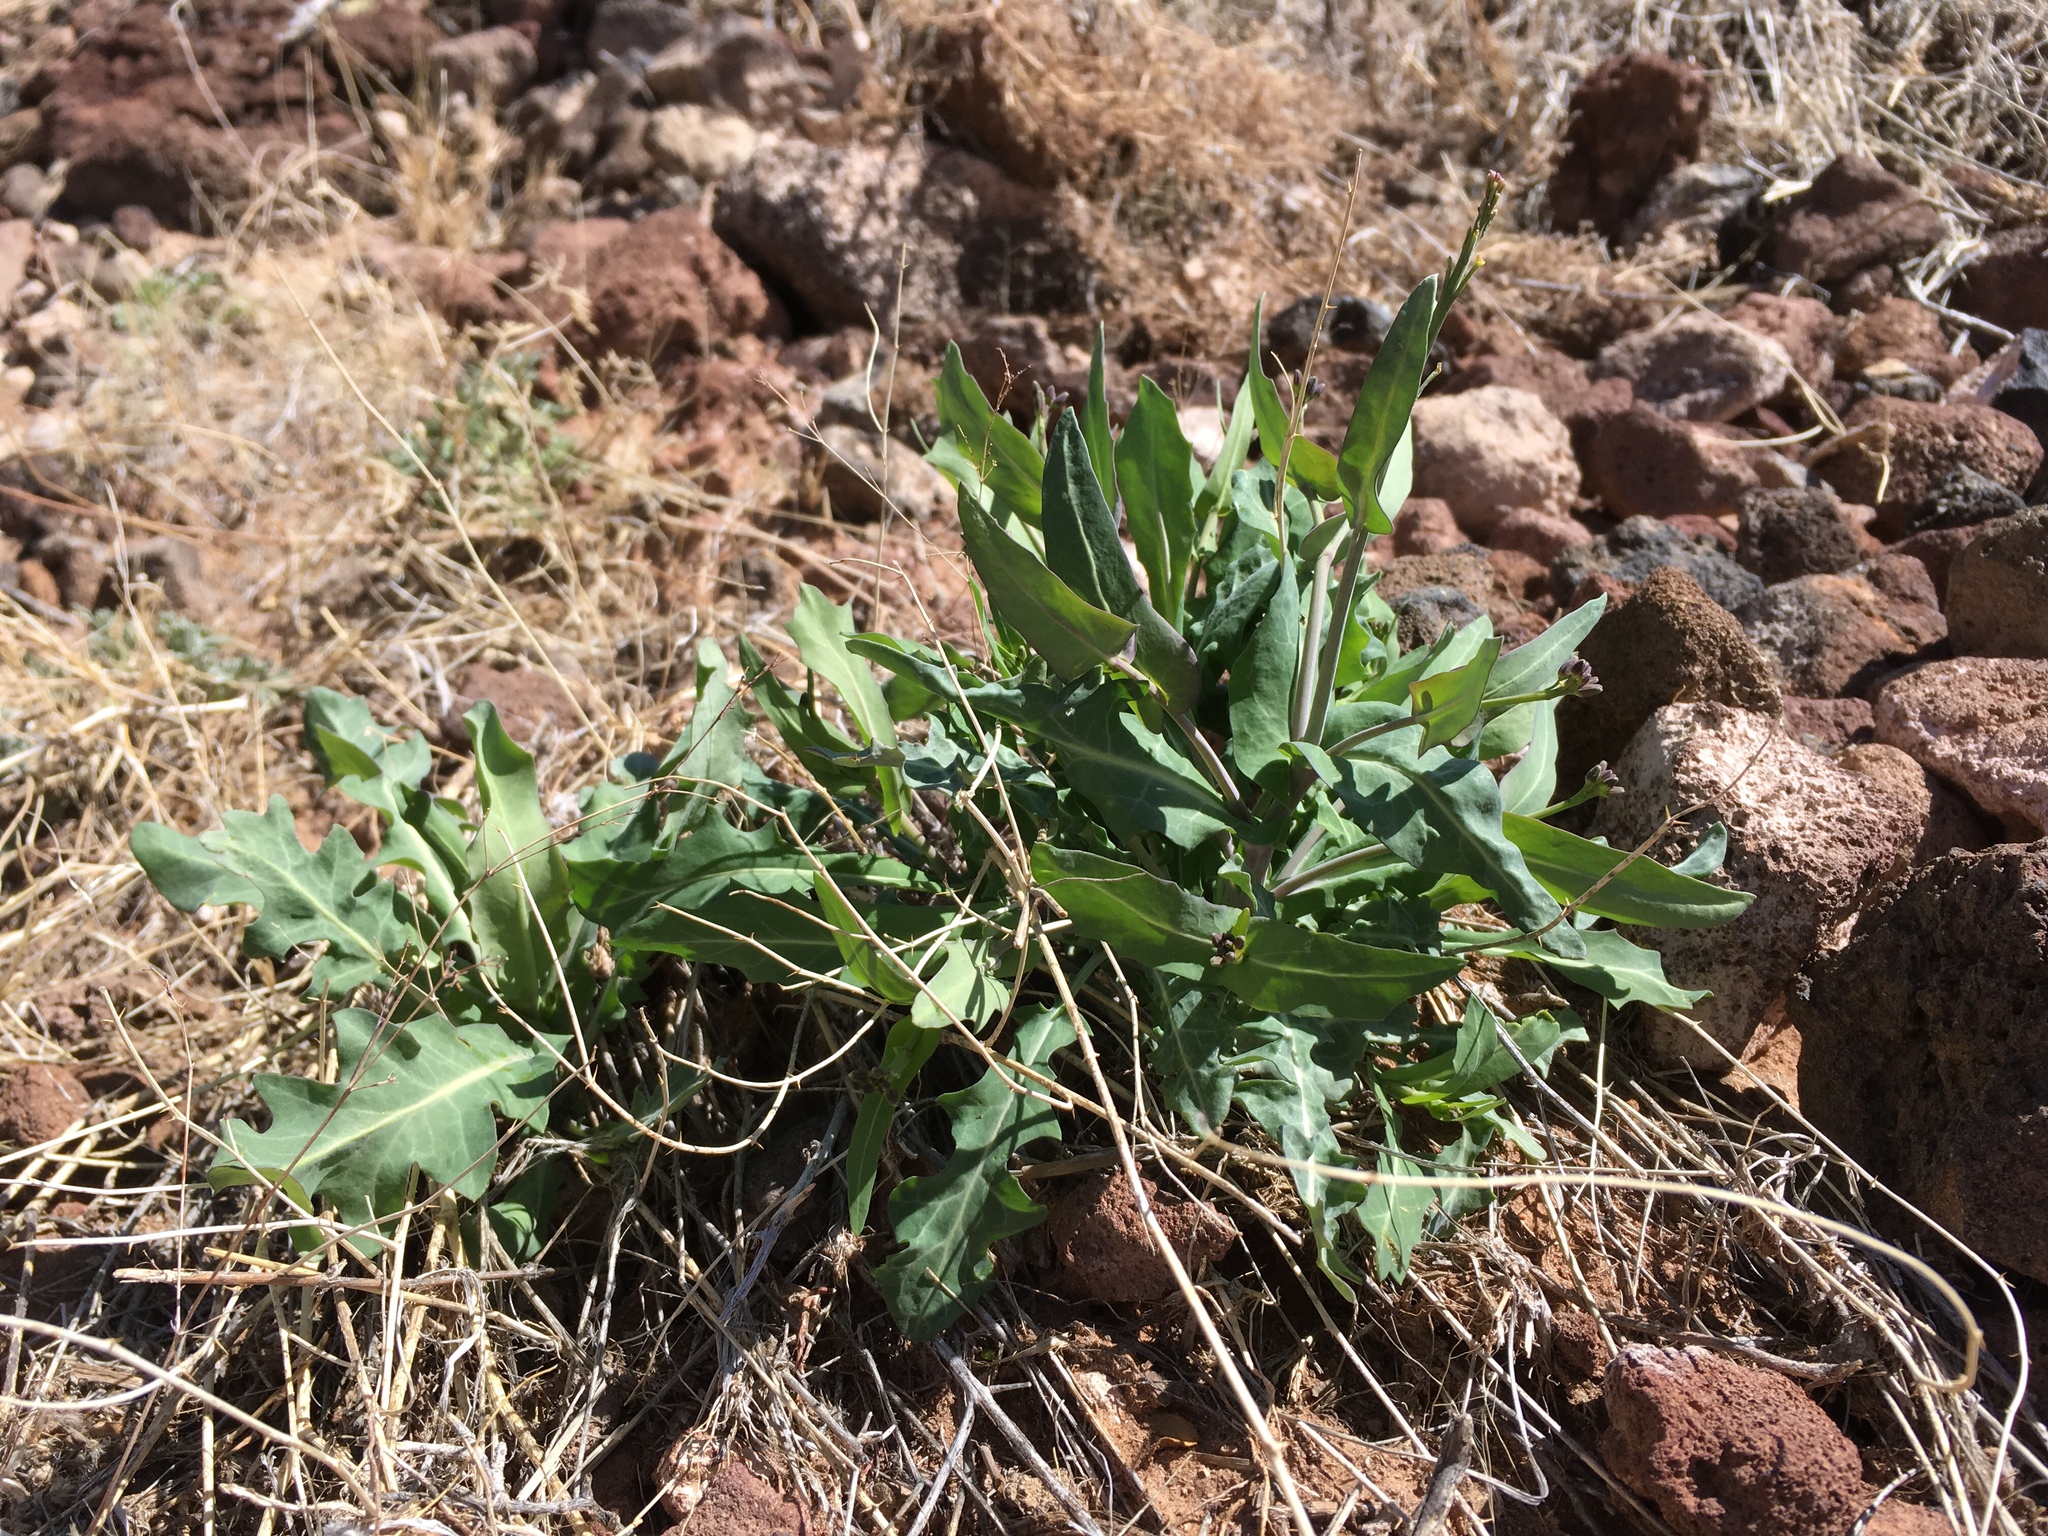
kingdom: Plantae
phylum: Tracheophyta
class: Magnoliopsida
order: Brassicales
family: Brassicaceae
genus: Streptanthus
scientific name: Streptanthus carinatus
